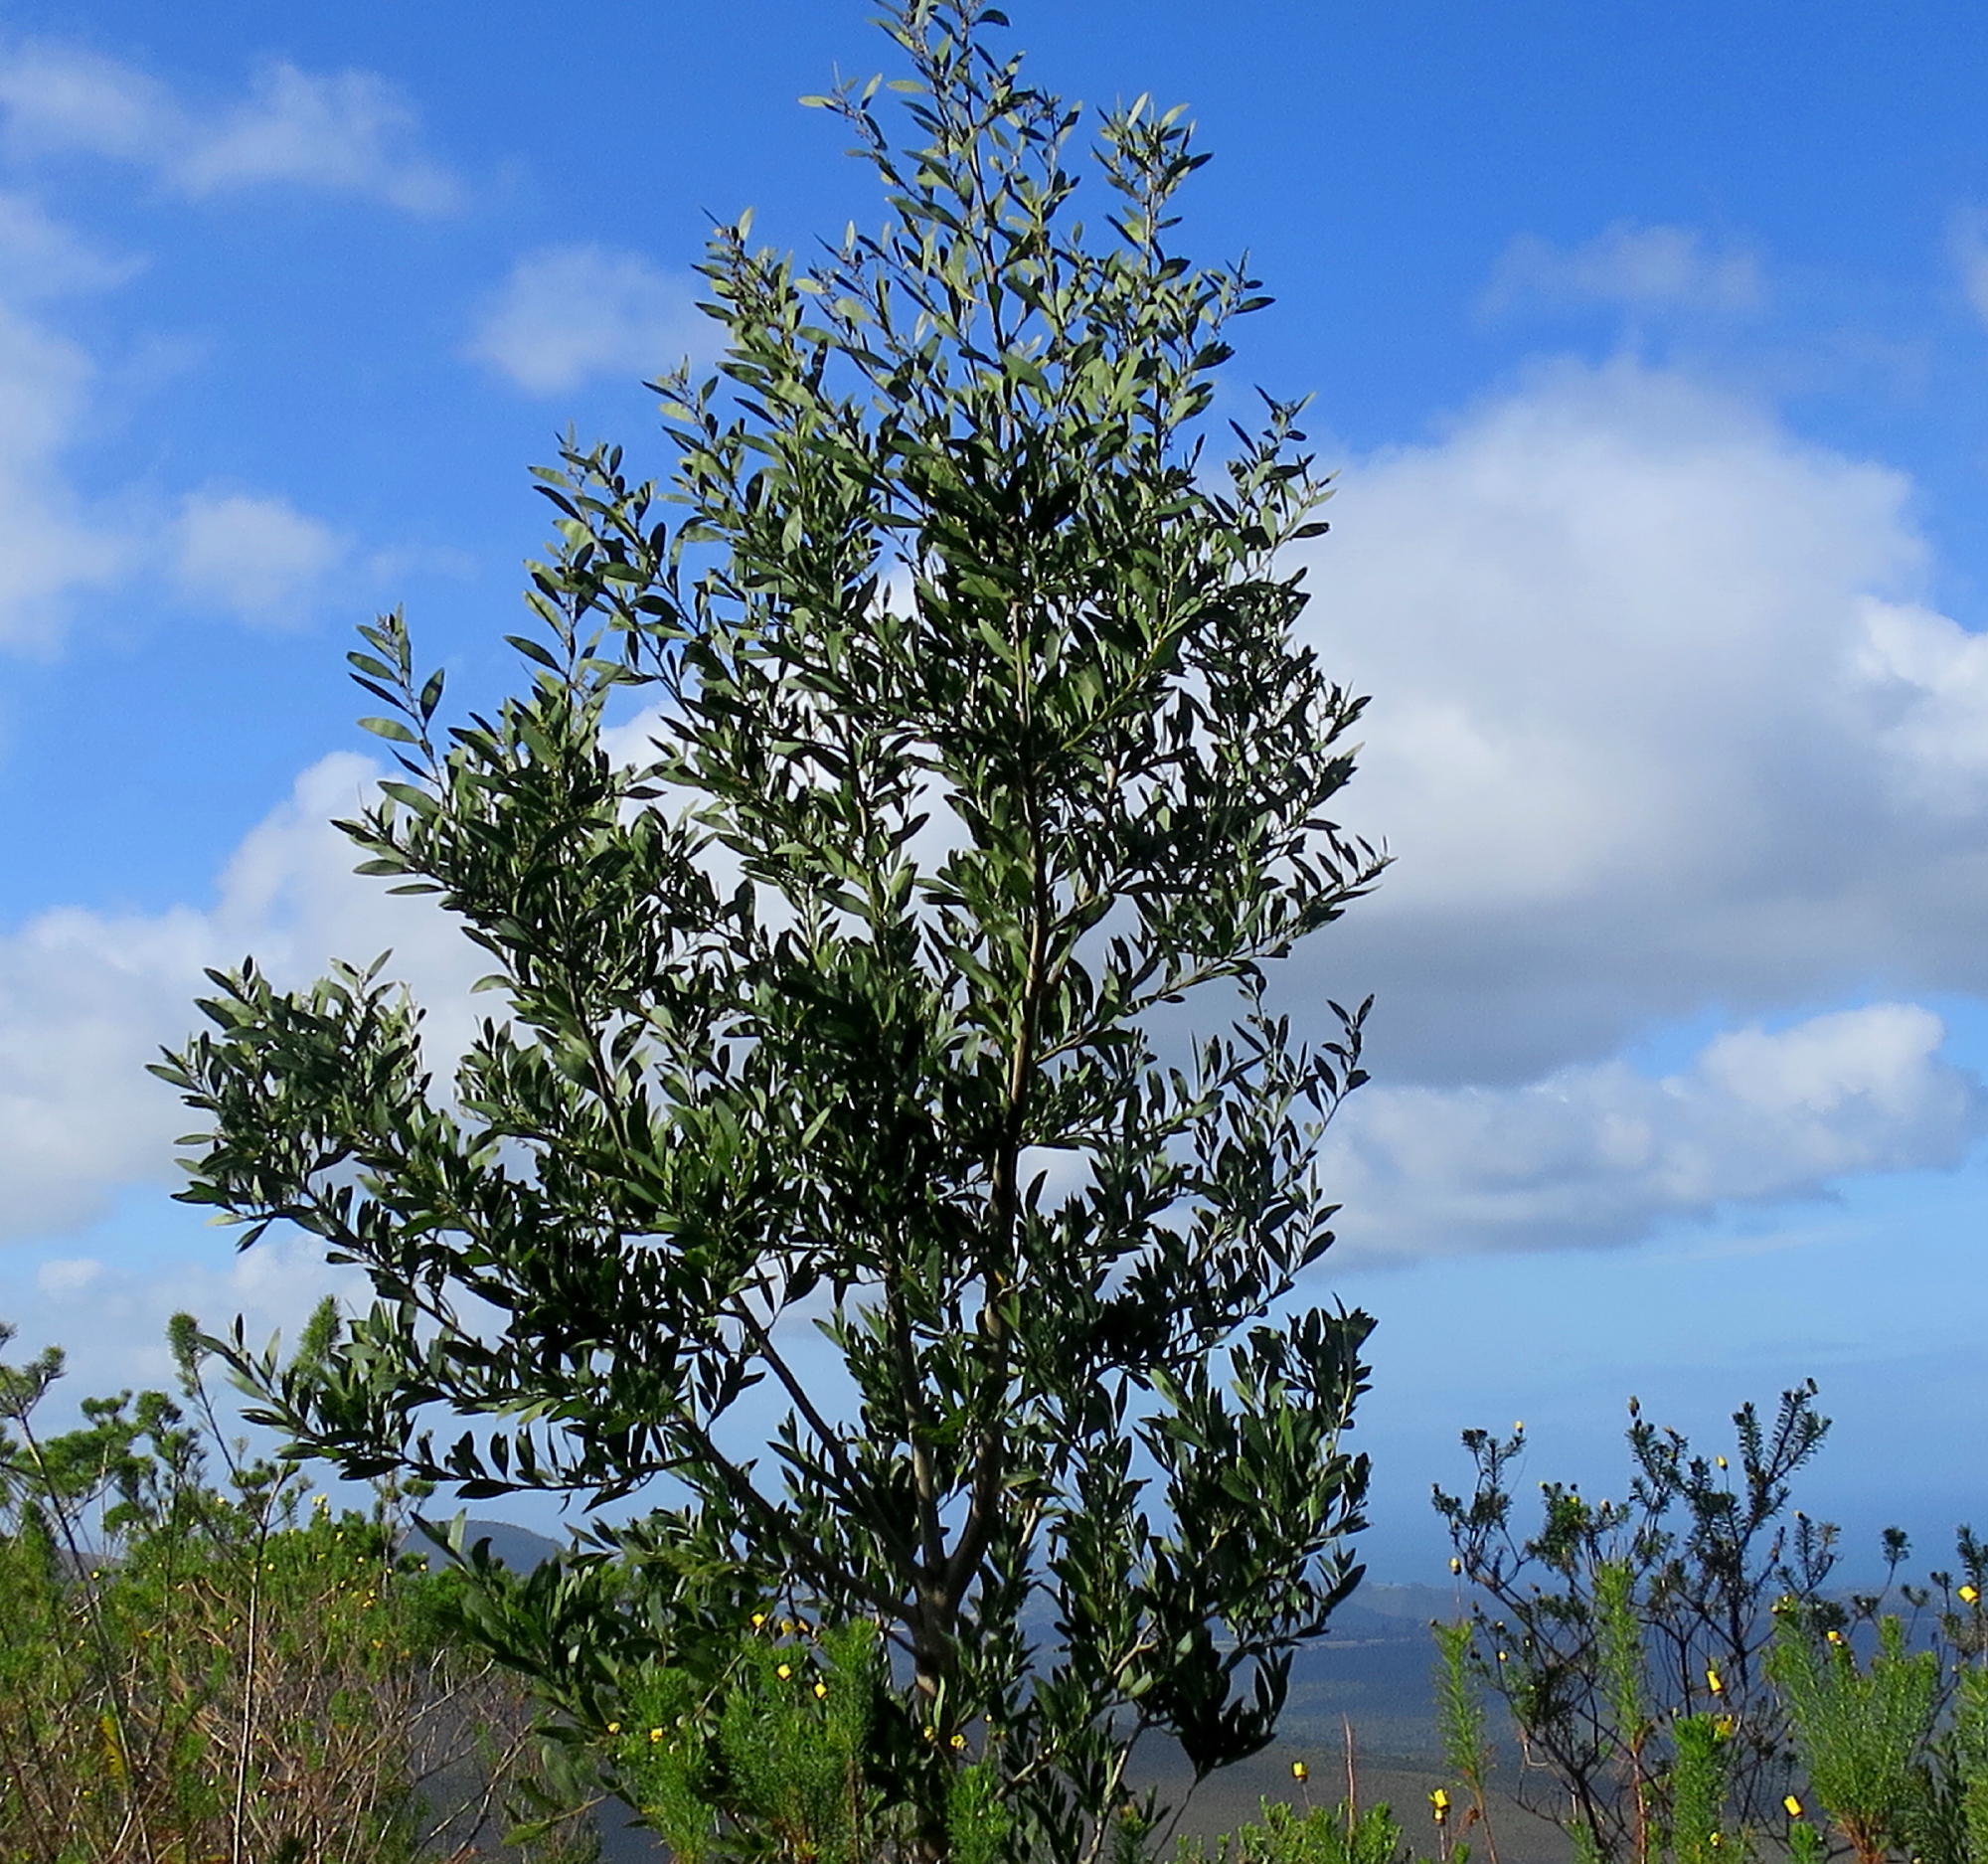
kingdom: Plantae
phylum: Tracheophyta
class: Magnoliopsida
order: Fabales
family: Fabaceae
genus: Acacia
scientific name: Acacia melanoxylon
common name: Blackwood
